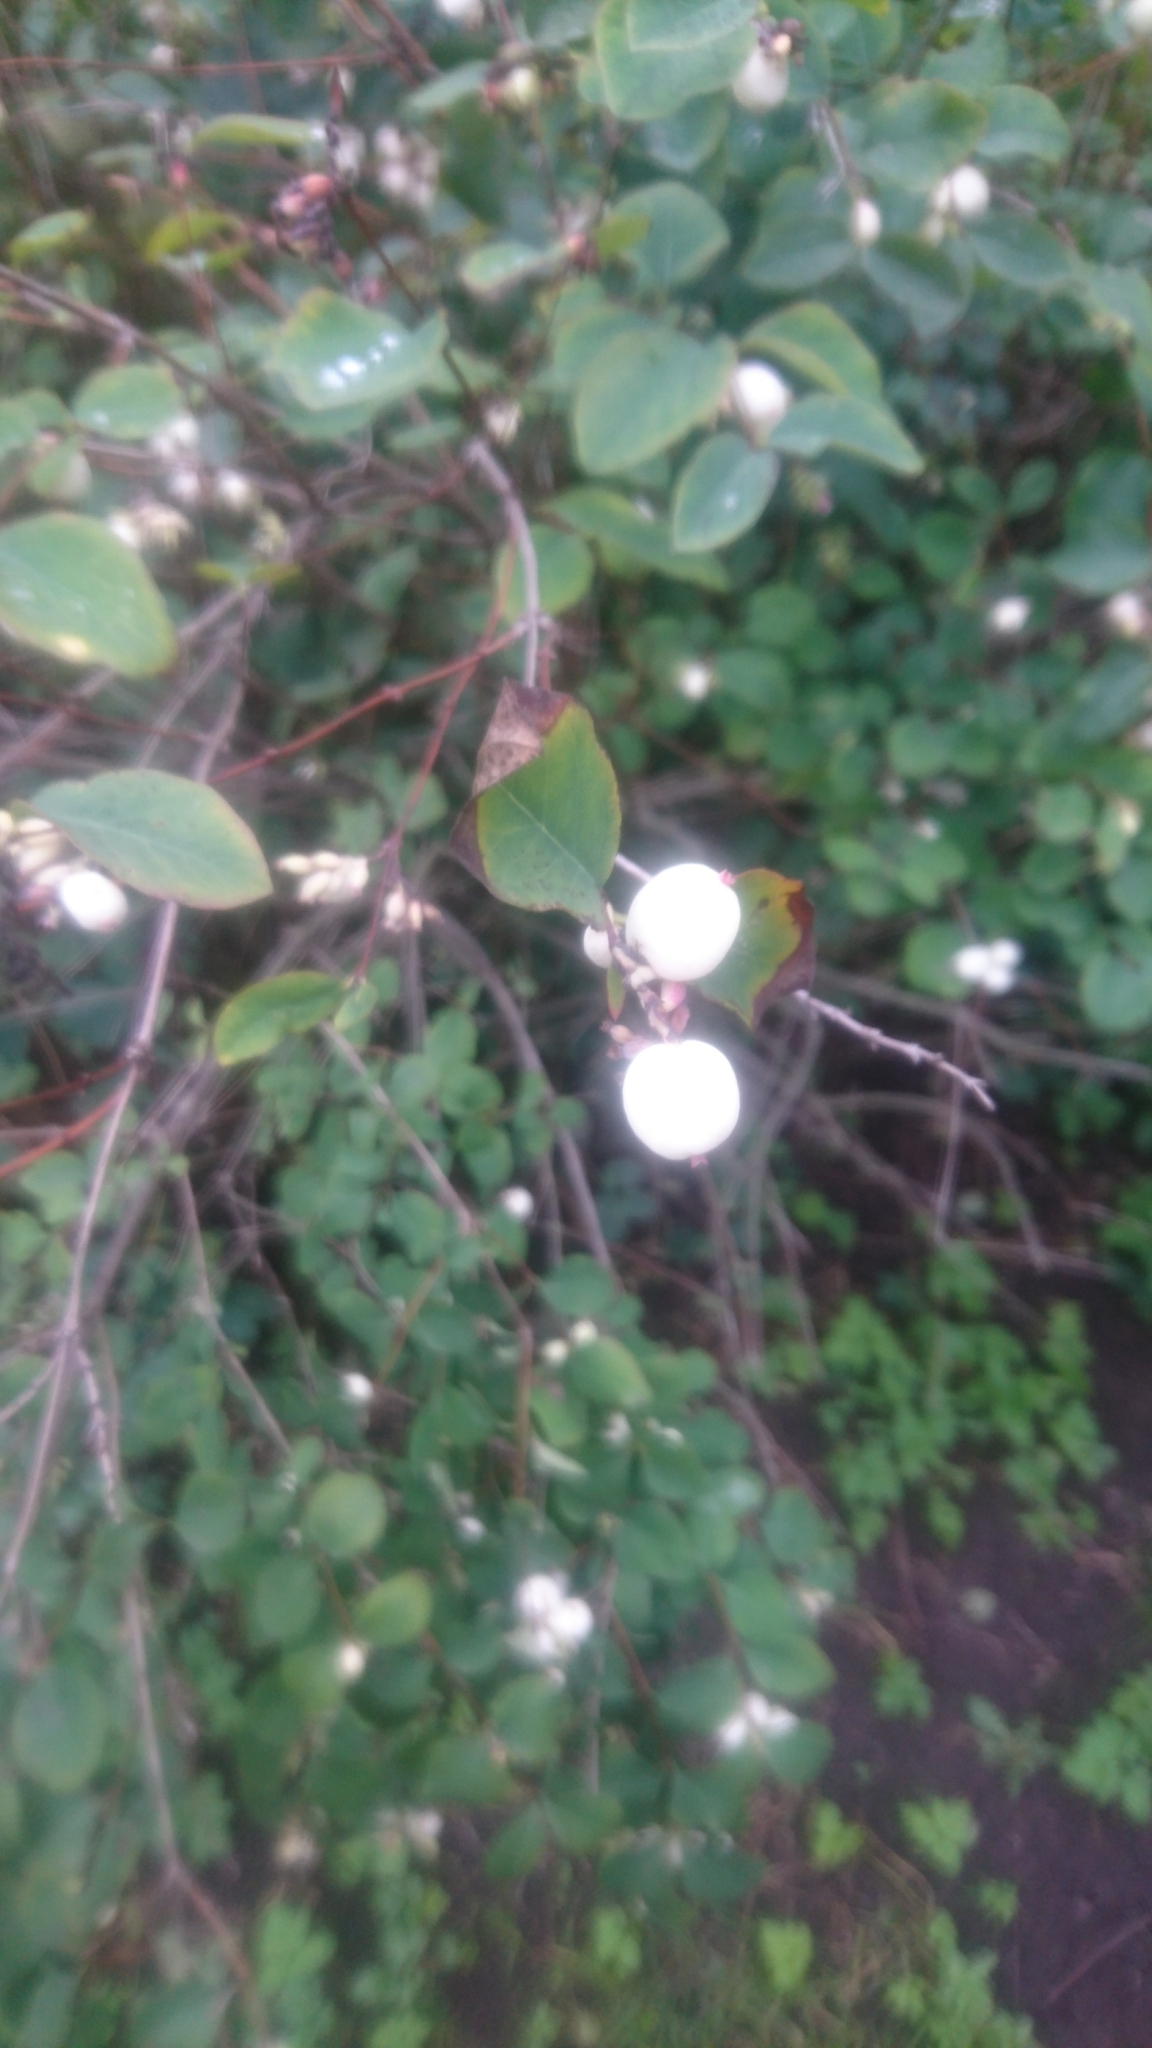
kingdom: Plantae
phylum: Tracheophyta
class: Magnoliopsida
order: Dipsacales
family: Caprifoliaceae
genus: Symphoricarpos
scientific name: Symphoricarpos albus
